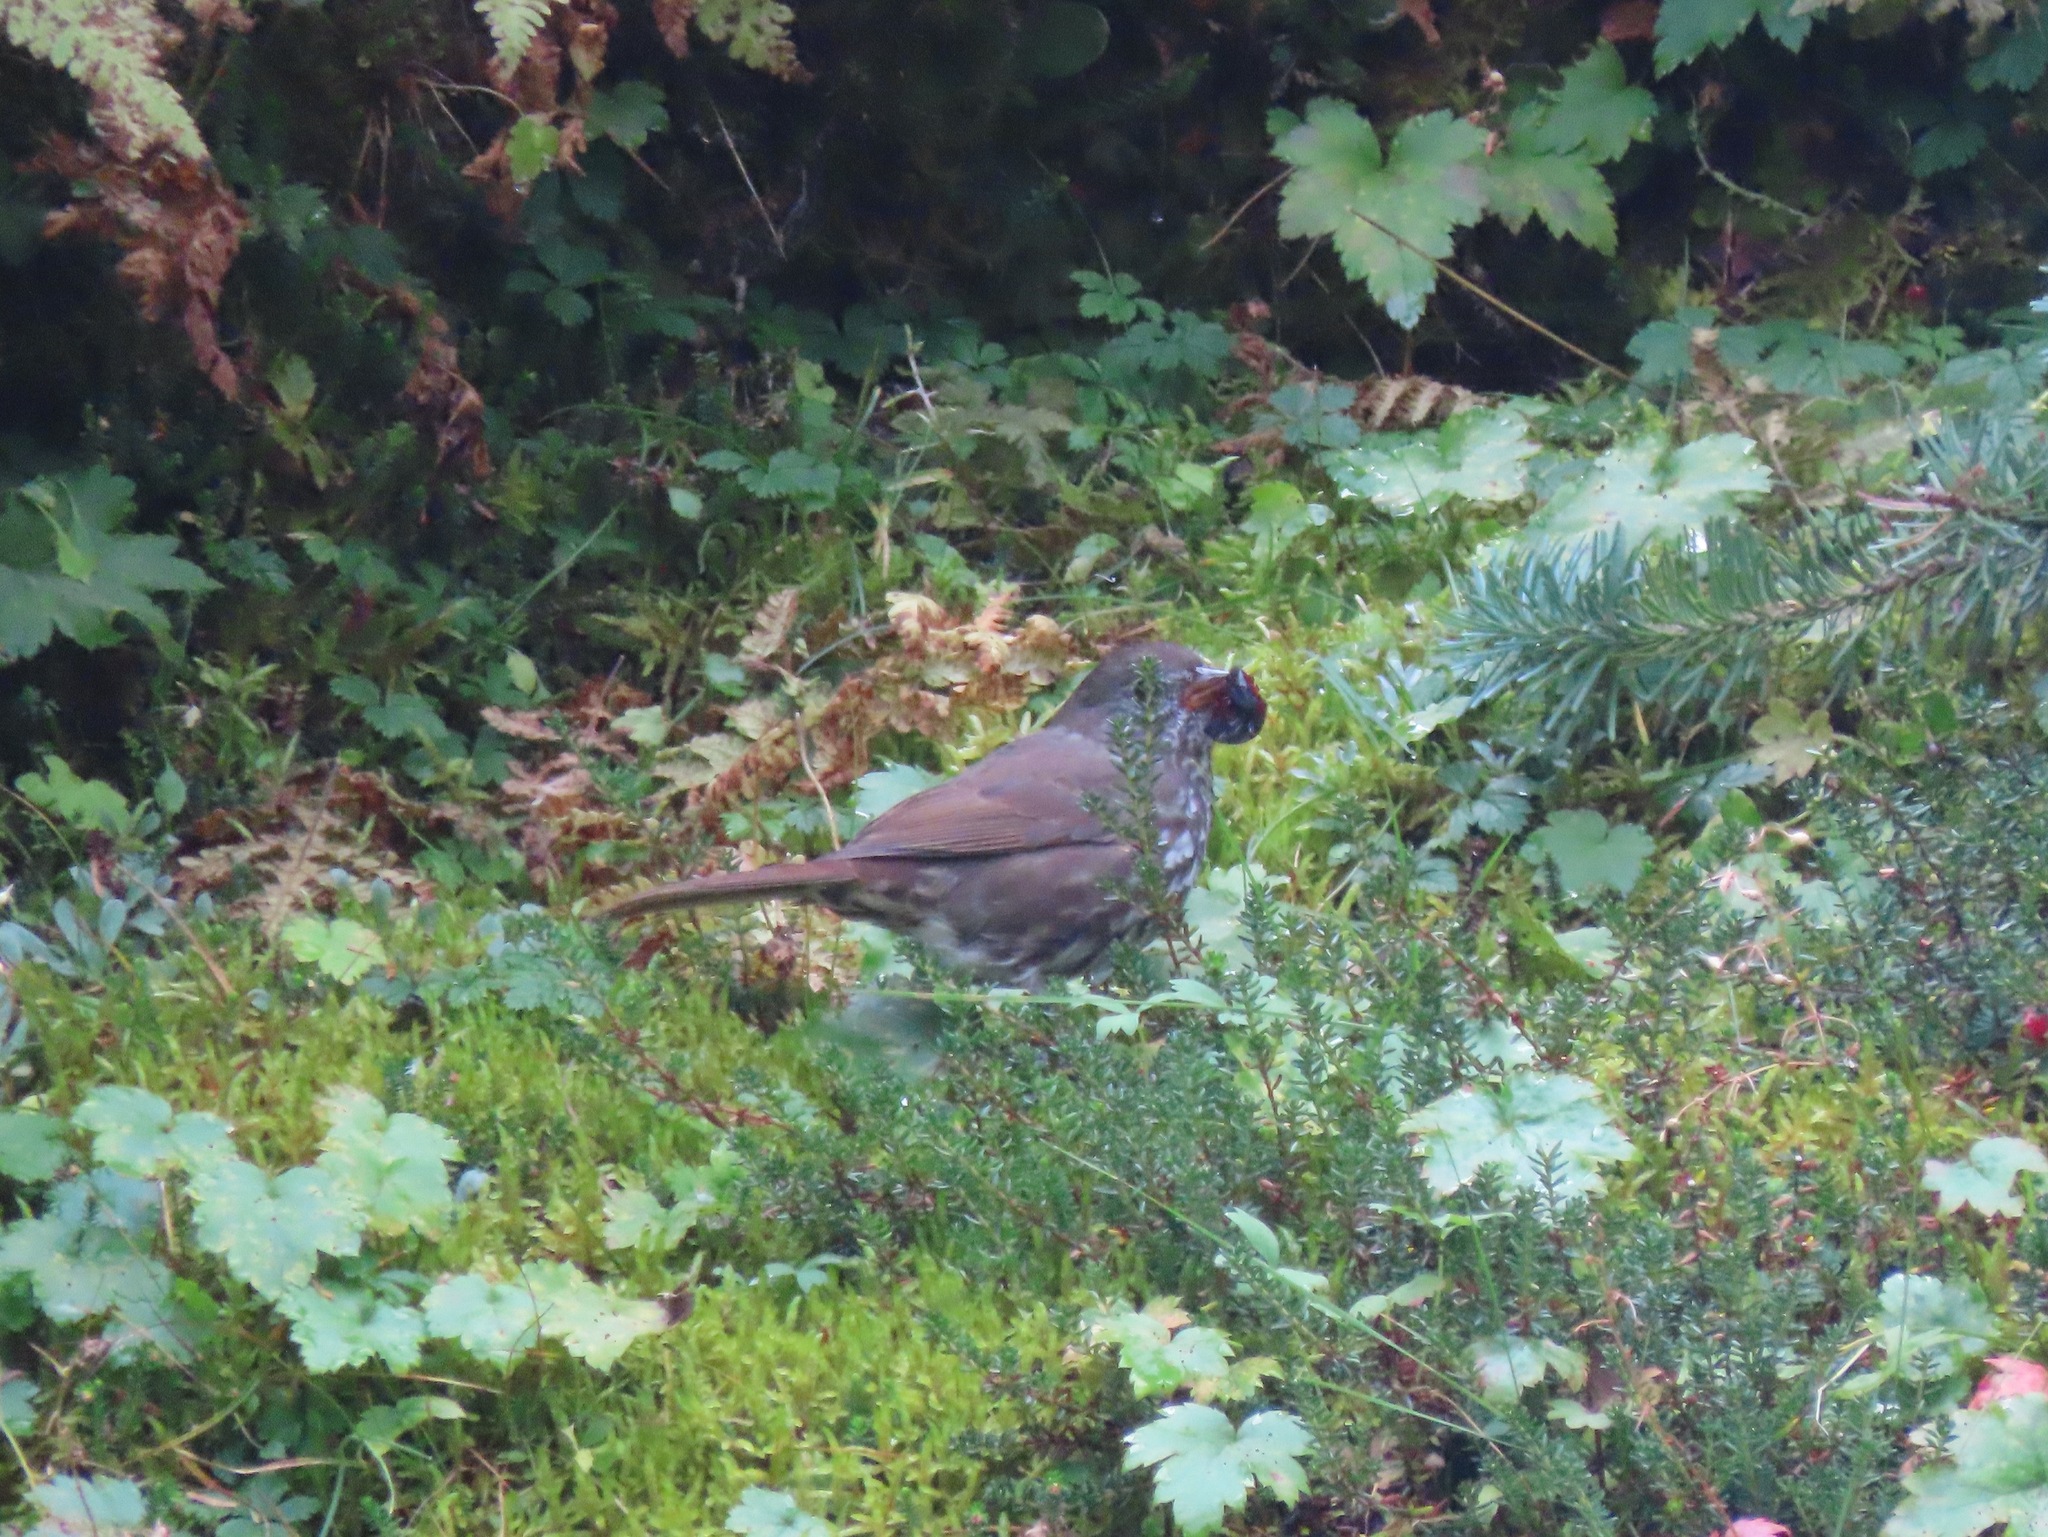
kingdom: Animalia
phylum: Chordata
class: Aves
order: Passeriformes
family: Passerellidae
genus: Passerella
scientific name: Passerella iliaca
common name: Fox sparrow
